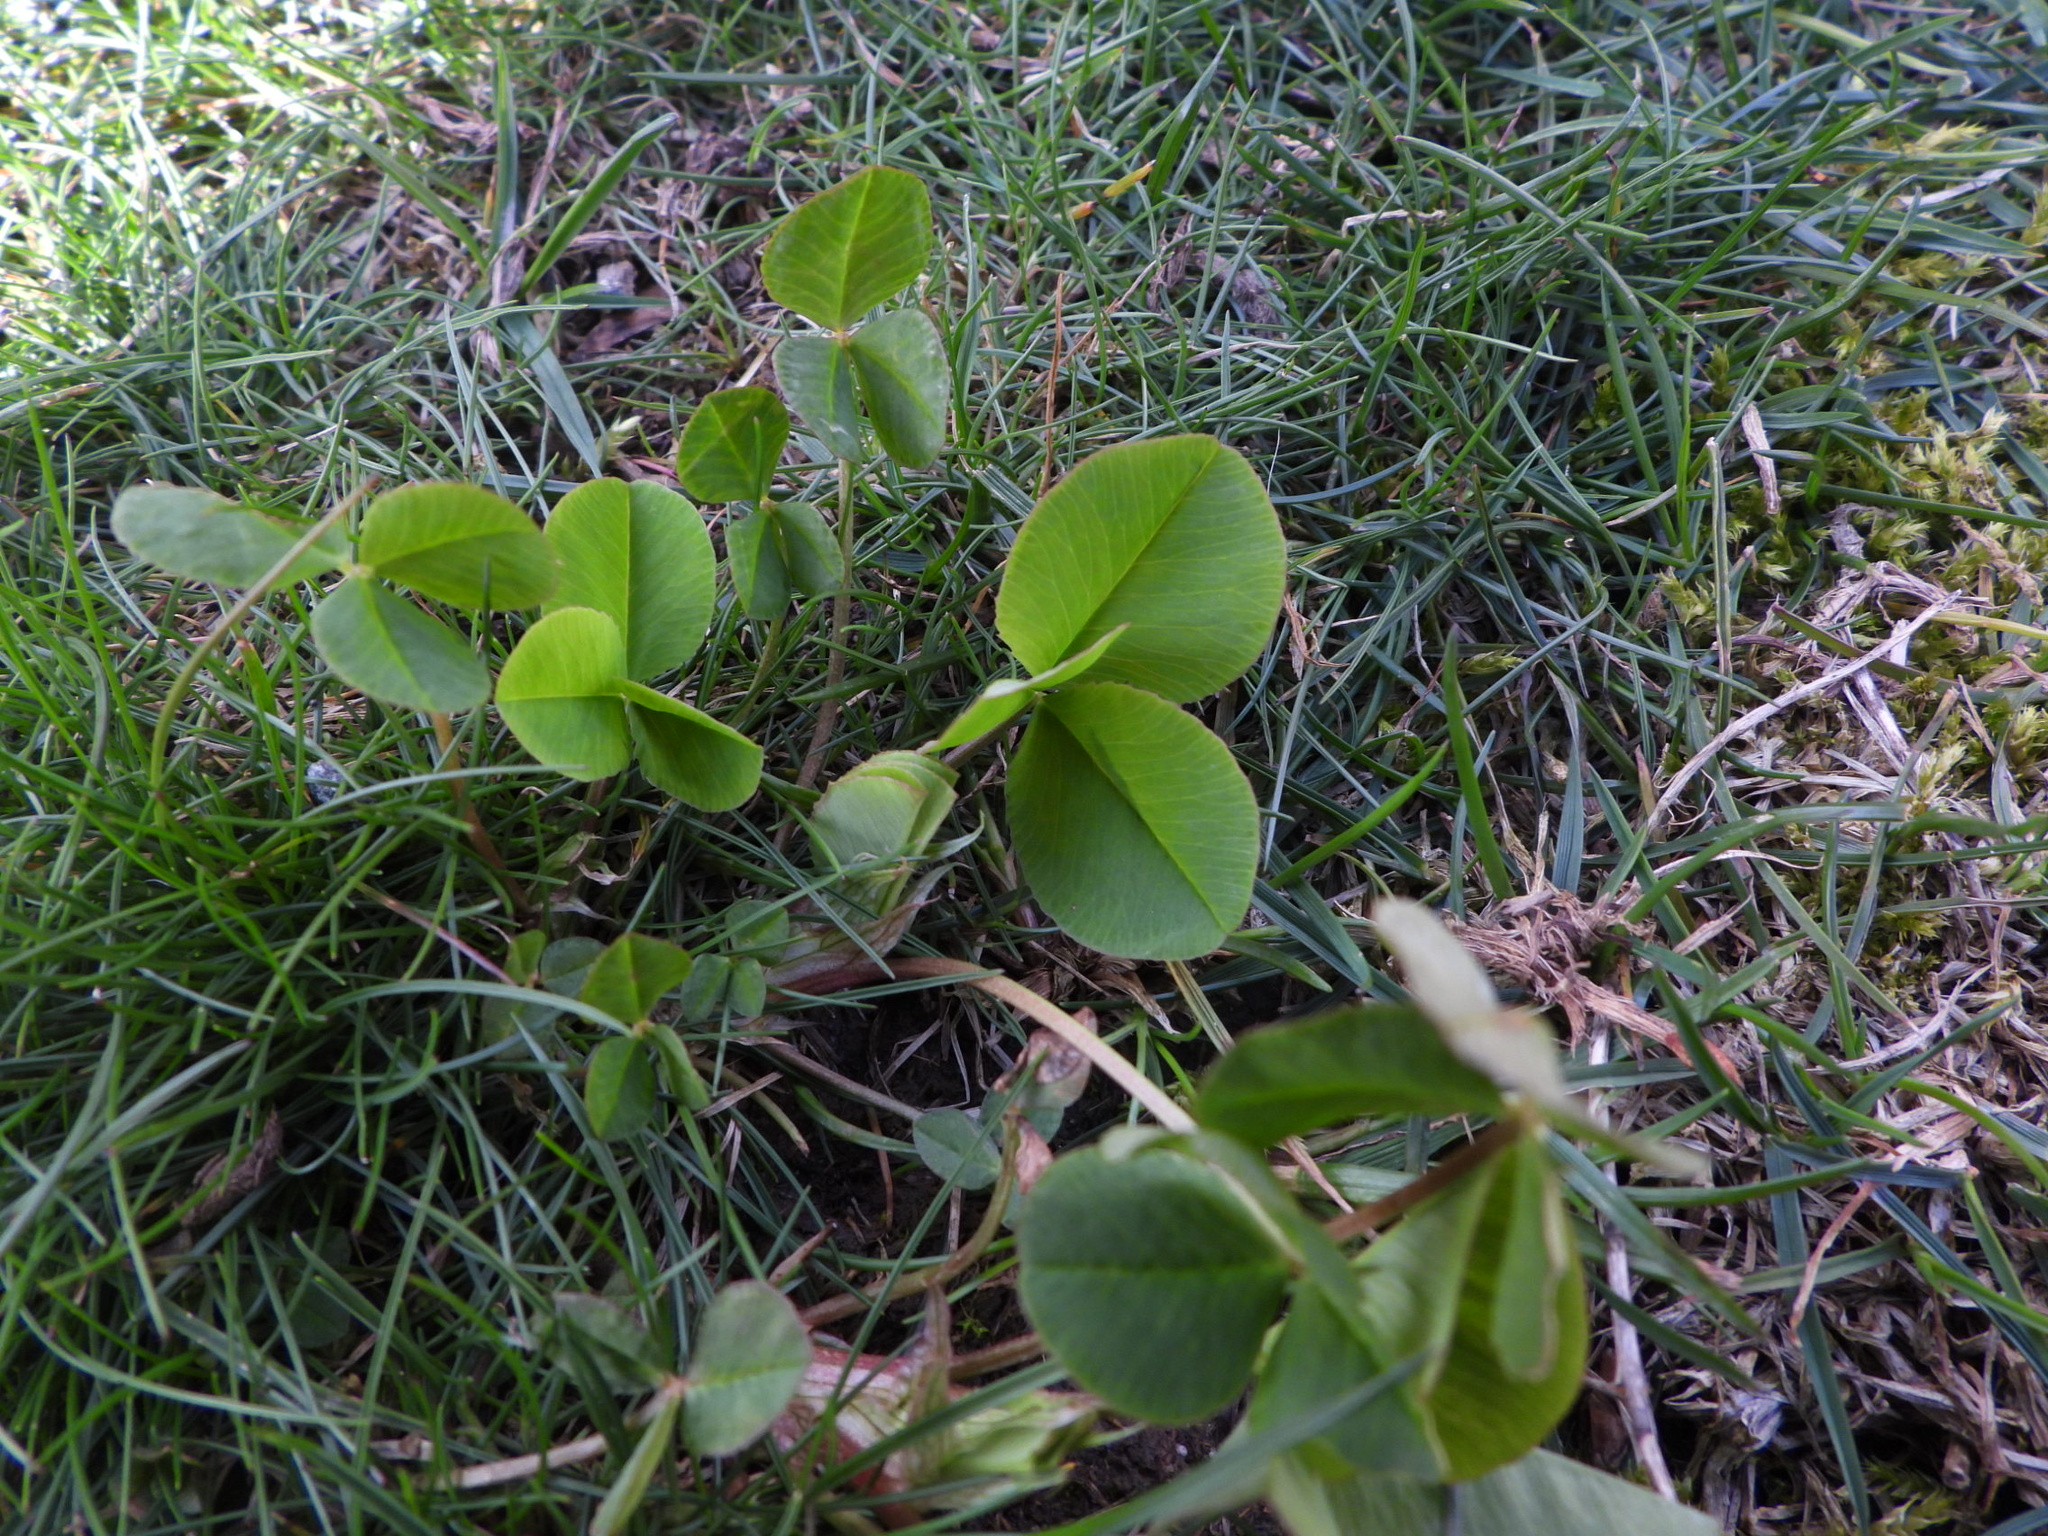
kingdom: Plantae
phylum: Tracheophyta
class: Magnoliopsida
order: Fabales
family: Fabaceae
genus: Trifolium
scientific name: Trifolium hybridum
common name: Alsike clover
